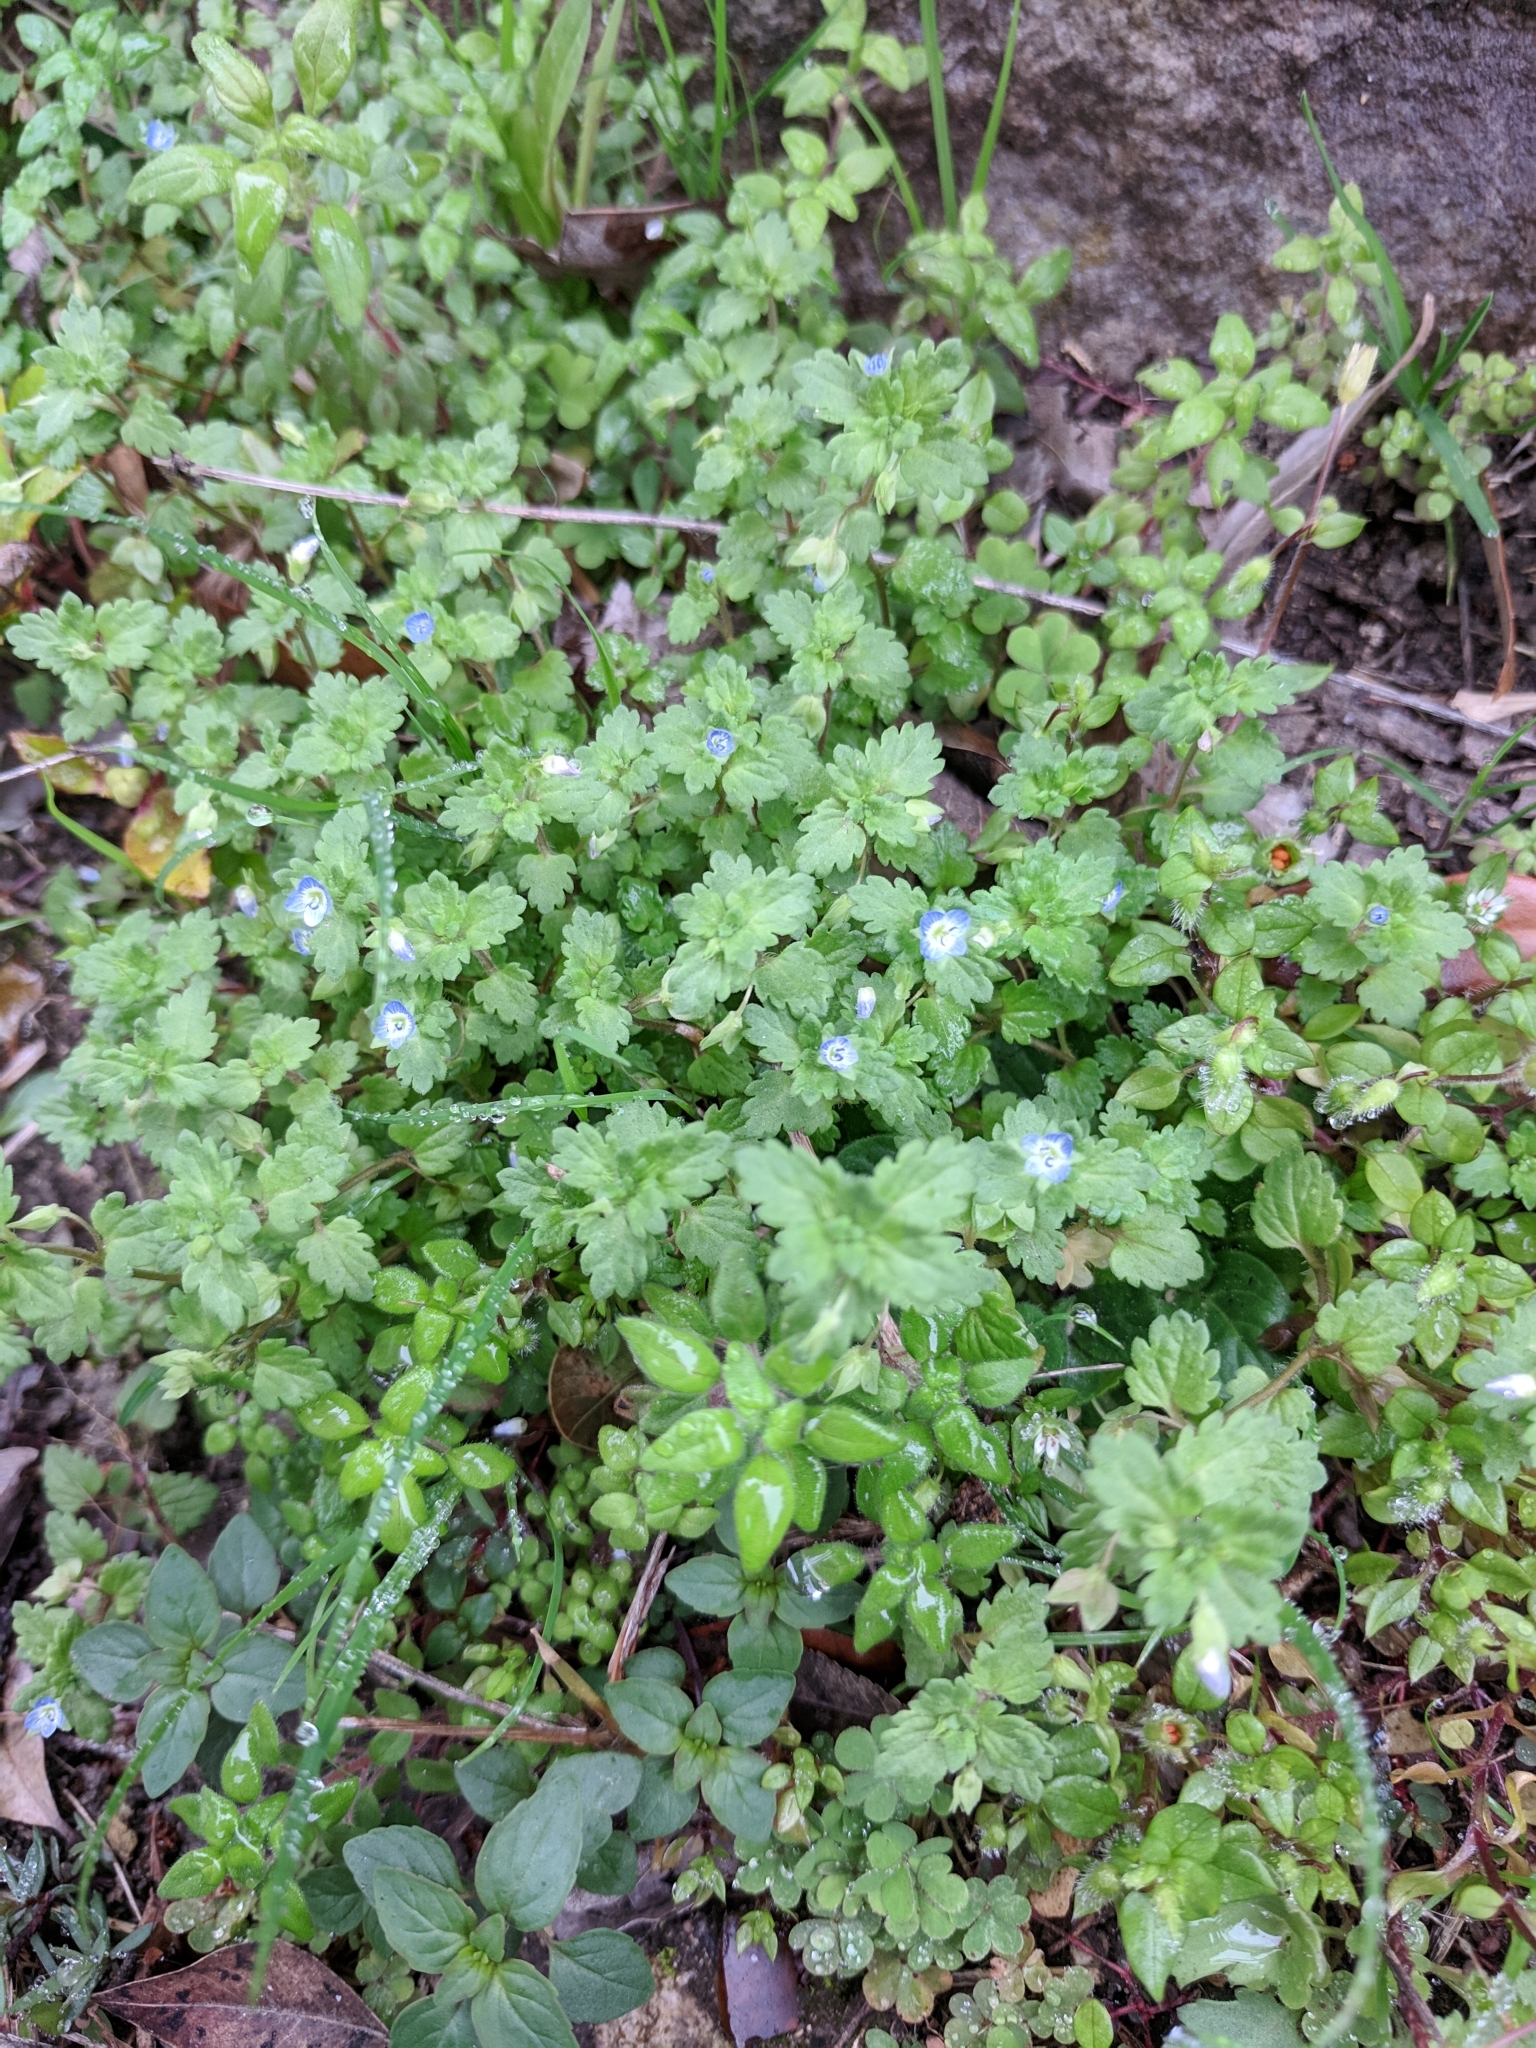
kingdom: Plantae
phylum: Tracheophyta
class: Magnoliopsida
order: Lamiales
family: Plantaginaceae
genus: Veronica
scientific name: Veronica polita
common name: Grey field-speedwell
